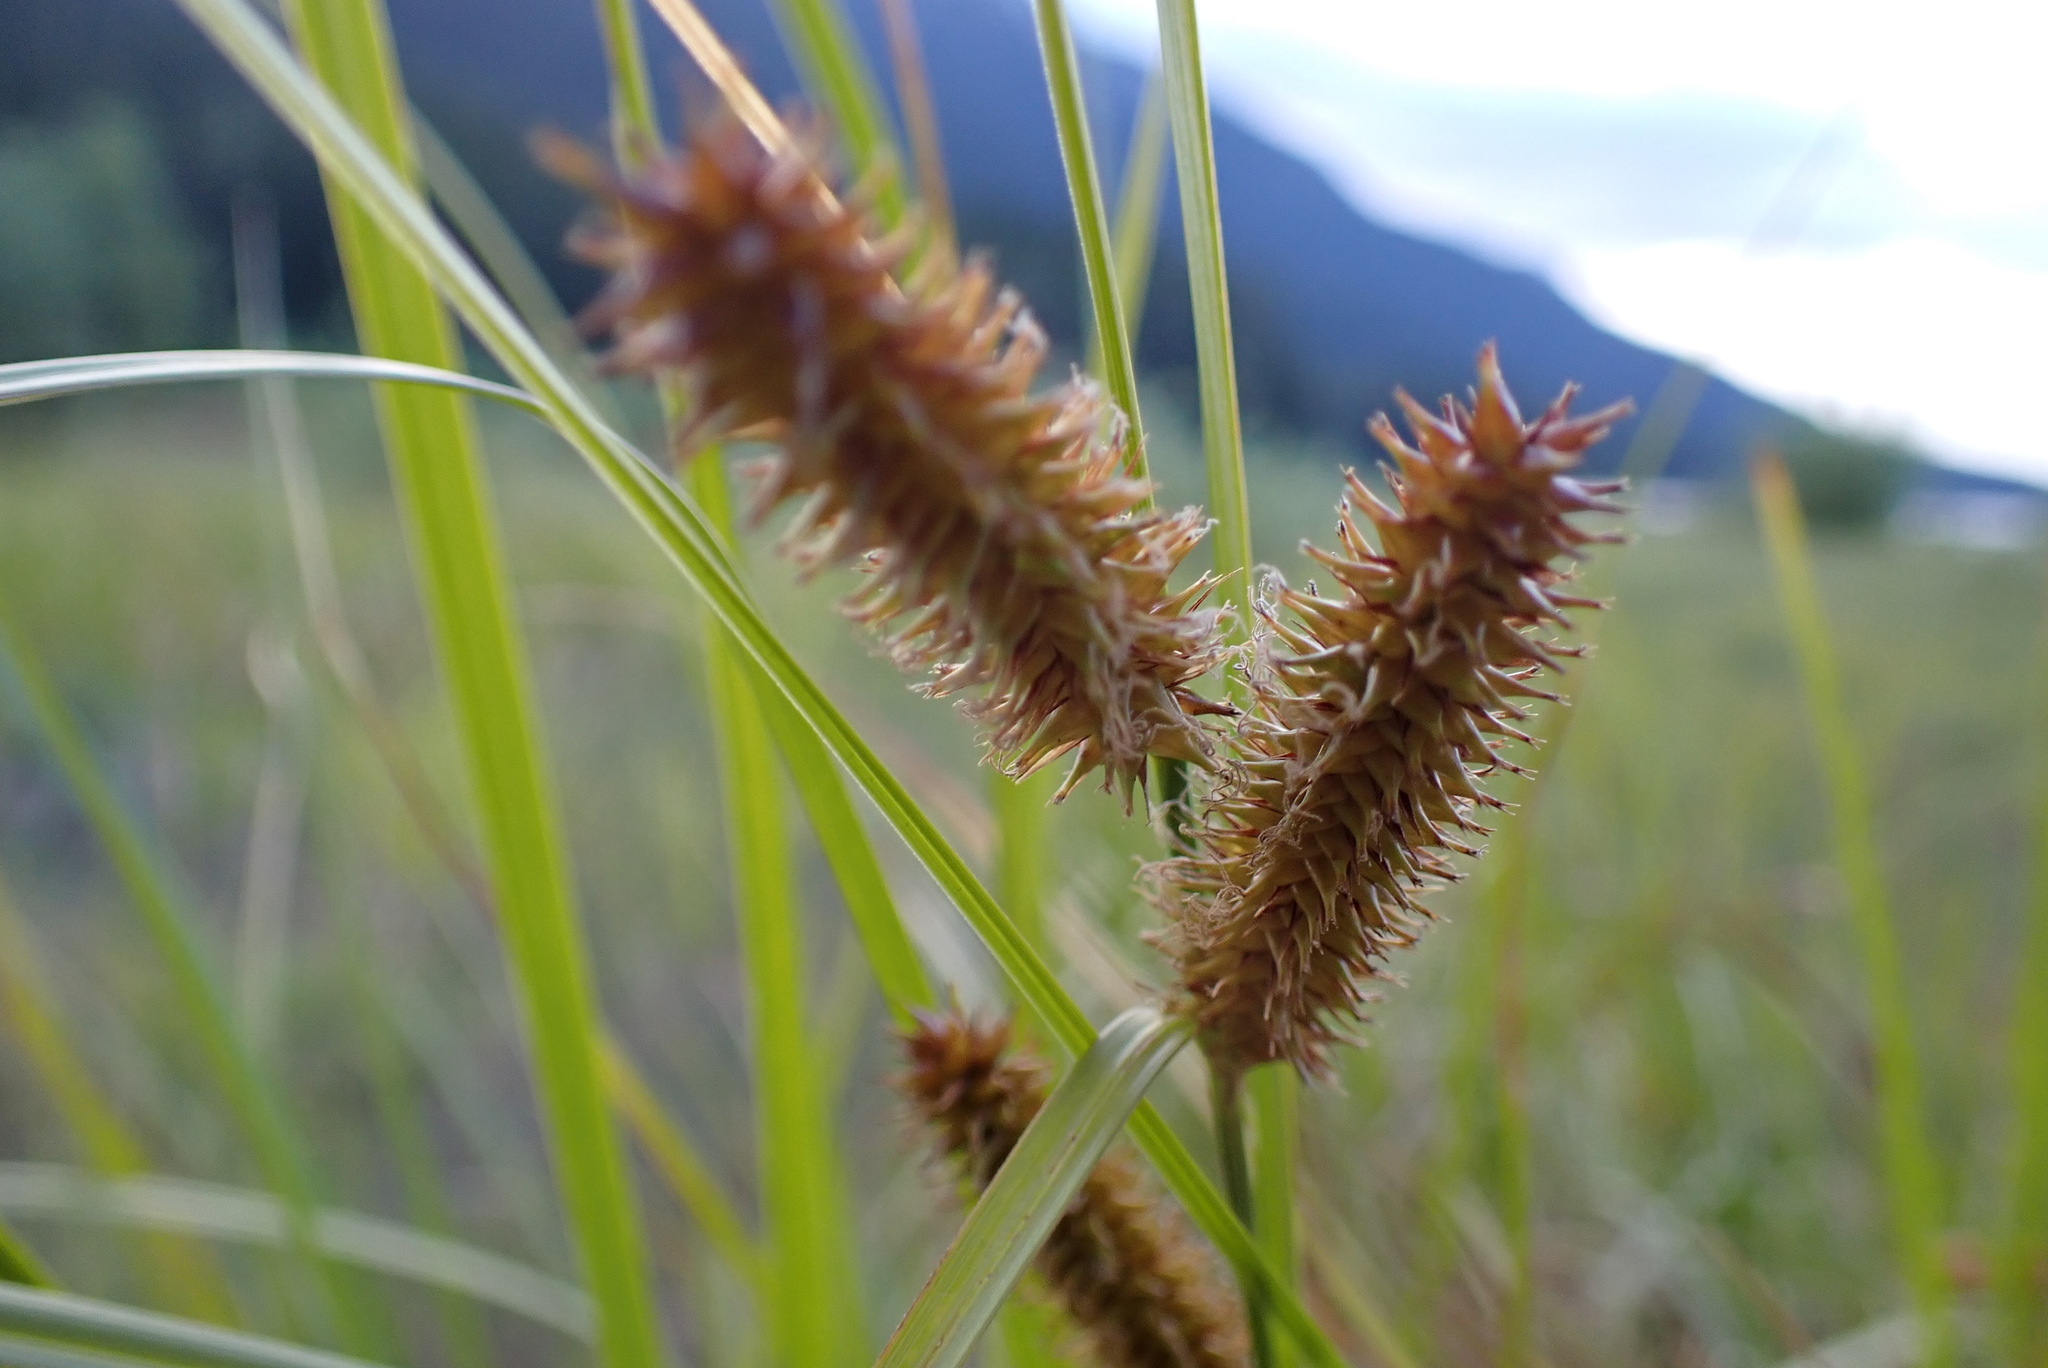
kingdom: Plantae
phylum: Tracheophyta
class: Liliopsida
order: Poales
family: Cyperaceae
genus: Carex
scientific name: Carex utriculata
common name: Beaked sedge
